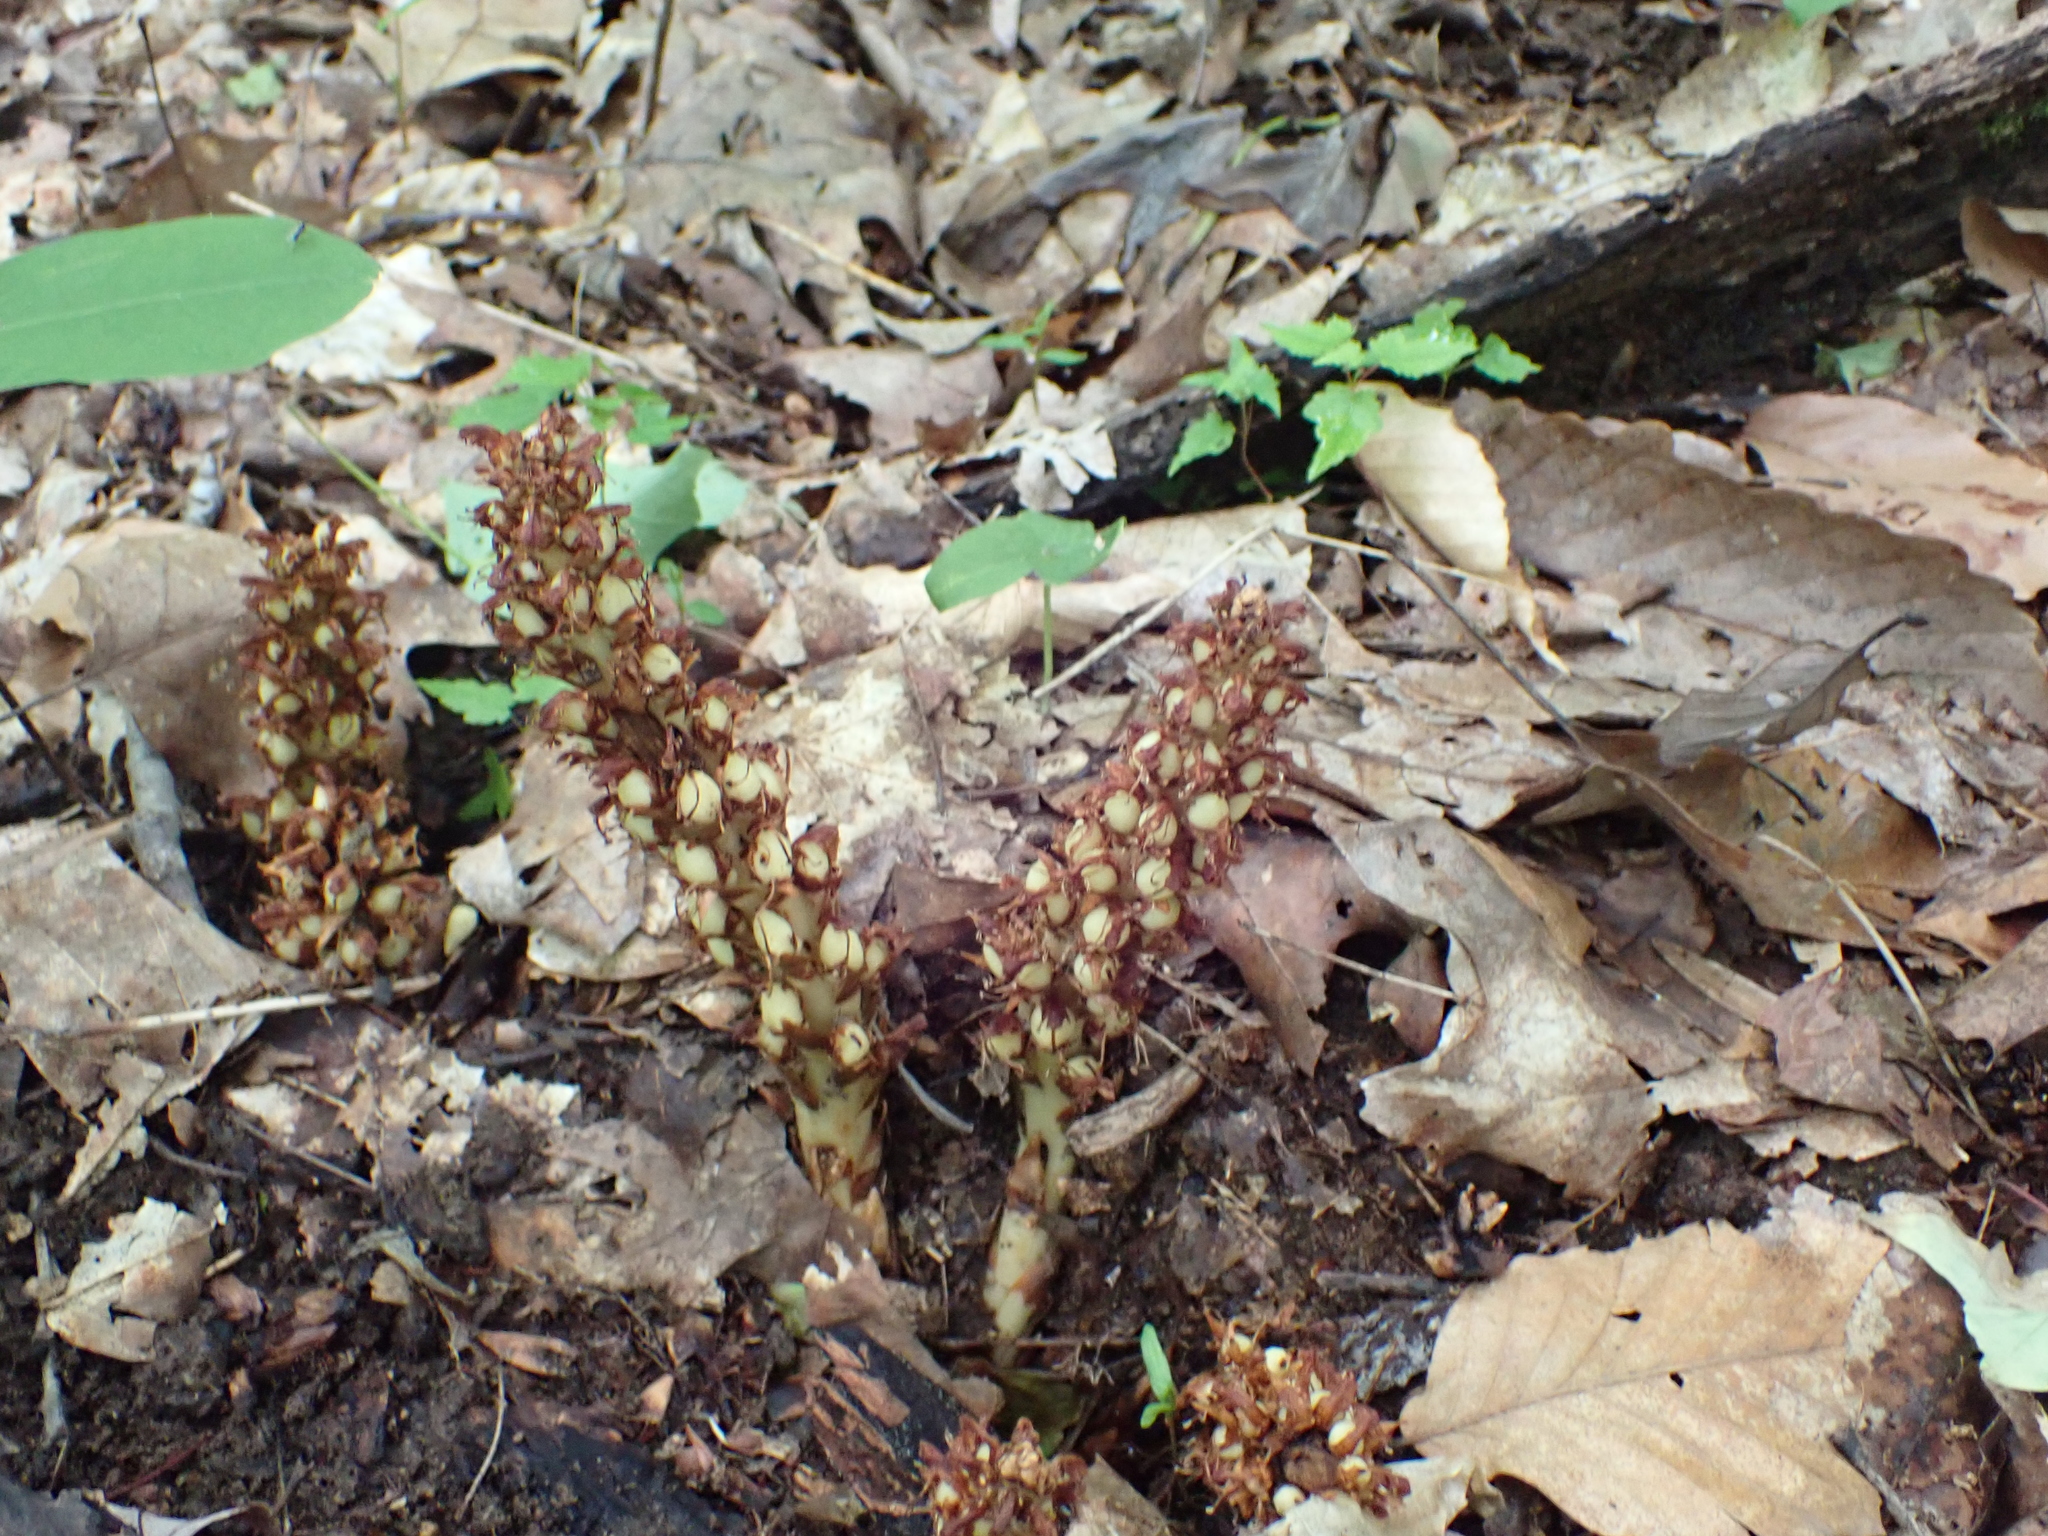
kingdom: Plantae
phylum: Tracheophyta
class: Magnoliopsida
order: Lamiales
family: Orobanchaceae
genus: Conopholis
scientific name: Conopholis americana
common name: American cancer-root
